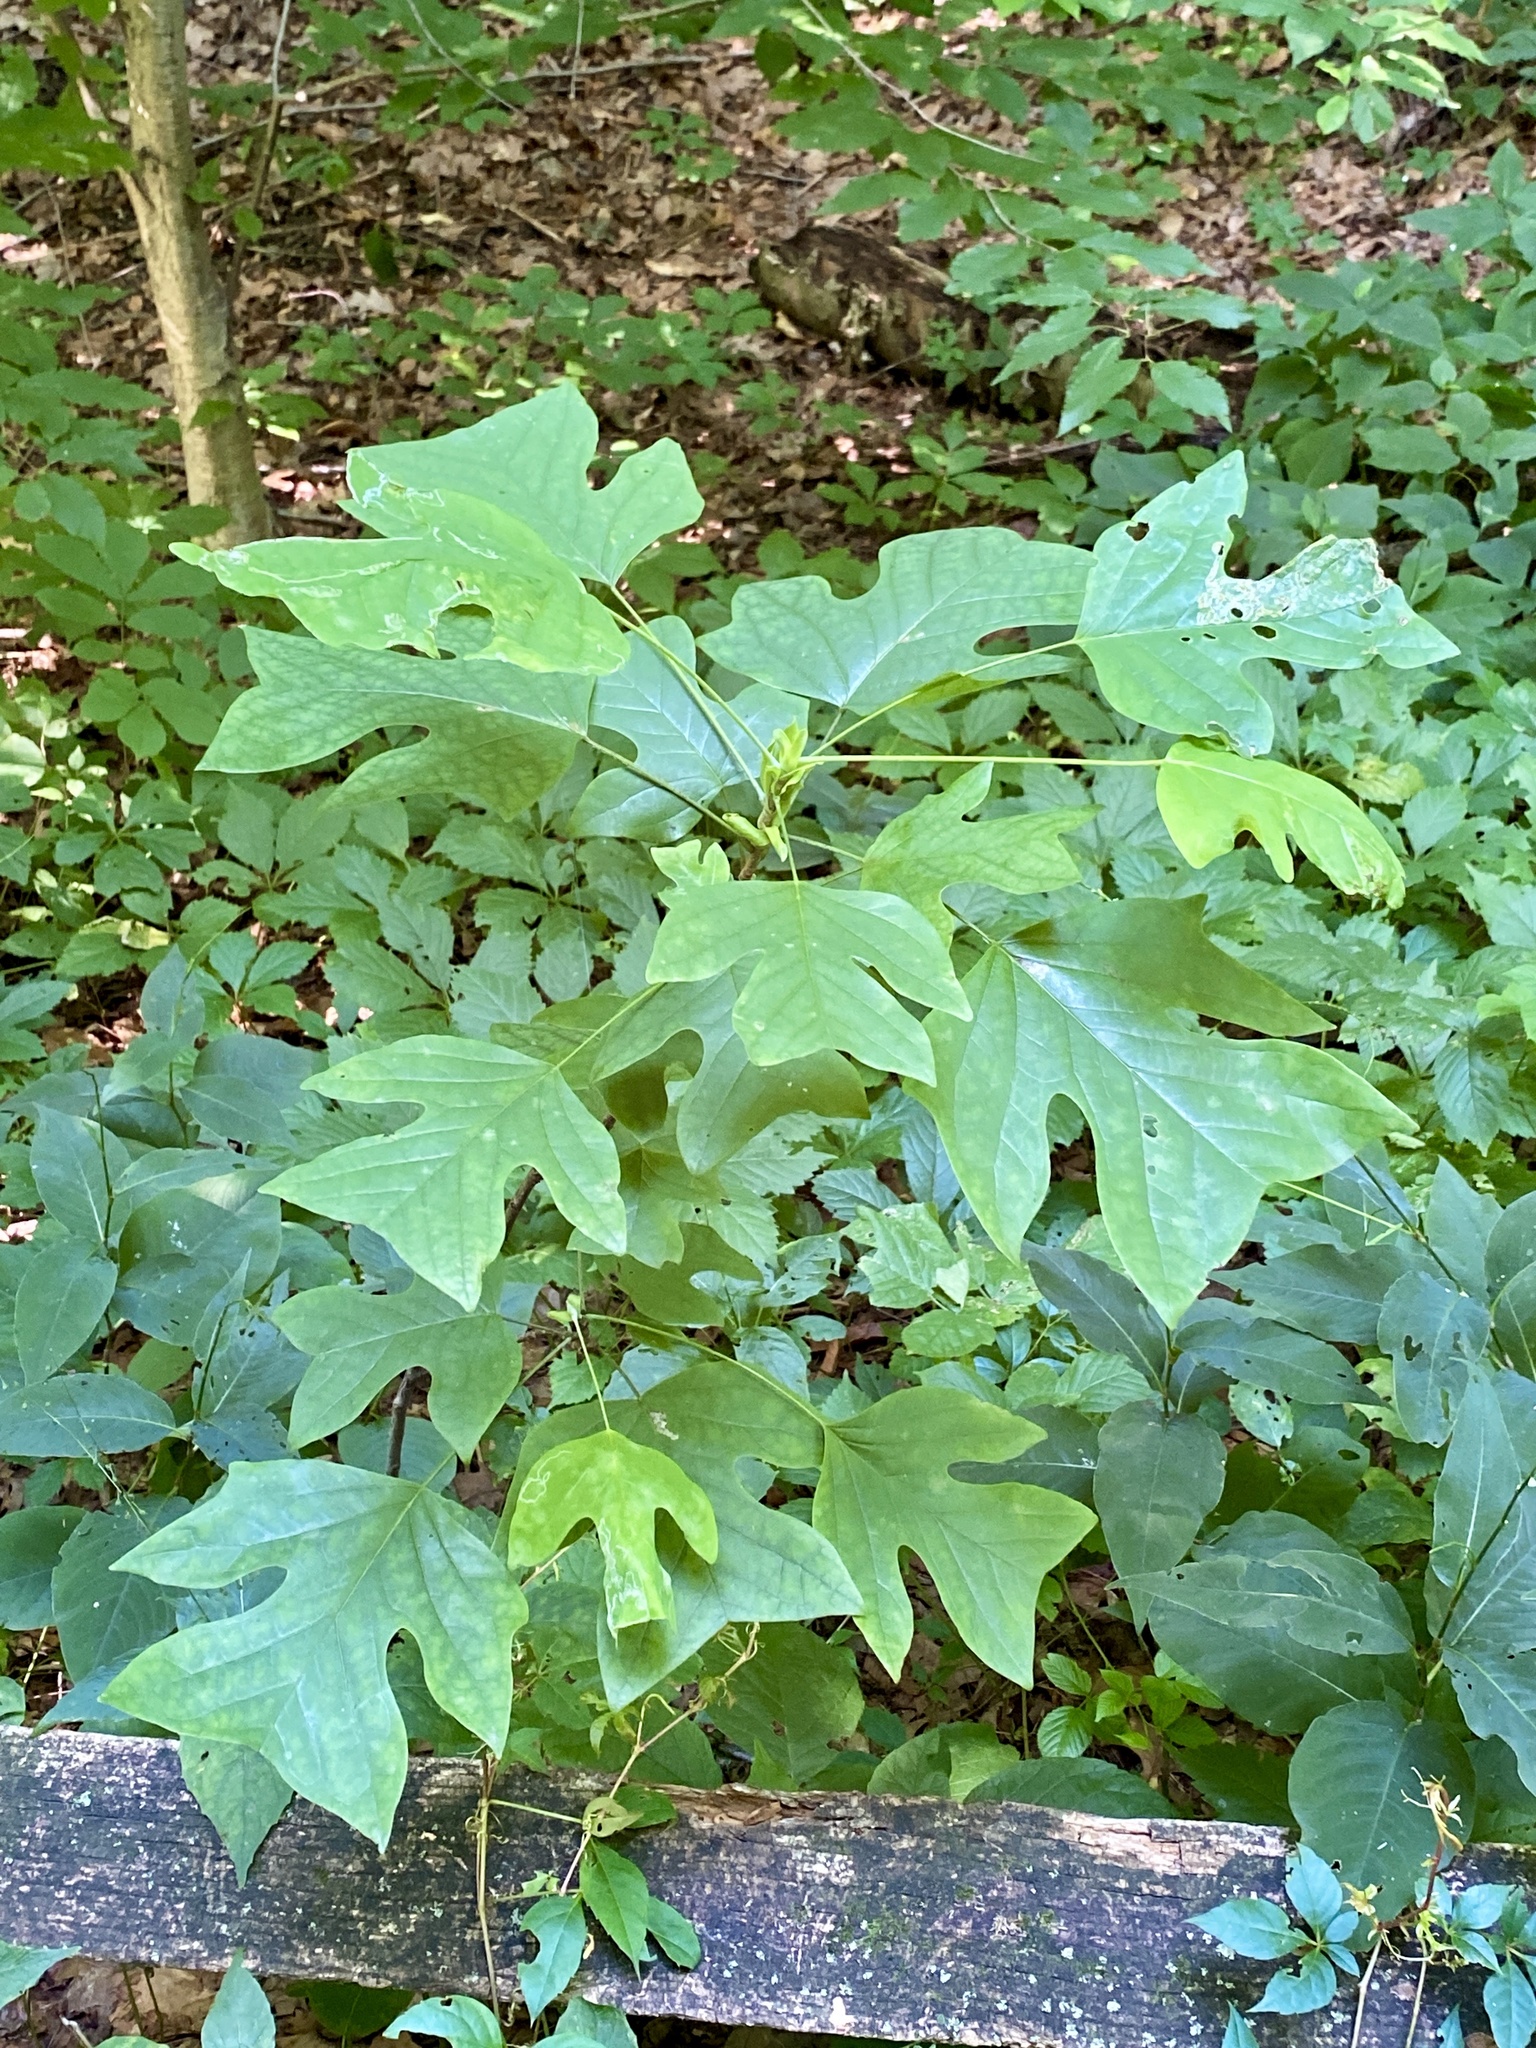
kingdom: Plantae
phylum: Tracheophyta
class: Magnoliopsida
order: Magnoliales
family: Magnoliaceae
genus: Liriodendron
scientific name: Liriodendron tulipifera
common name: Tulip tree
